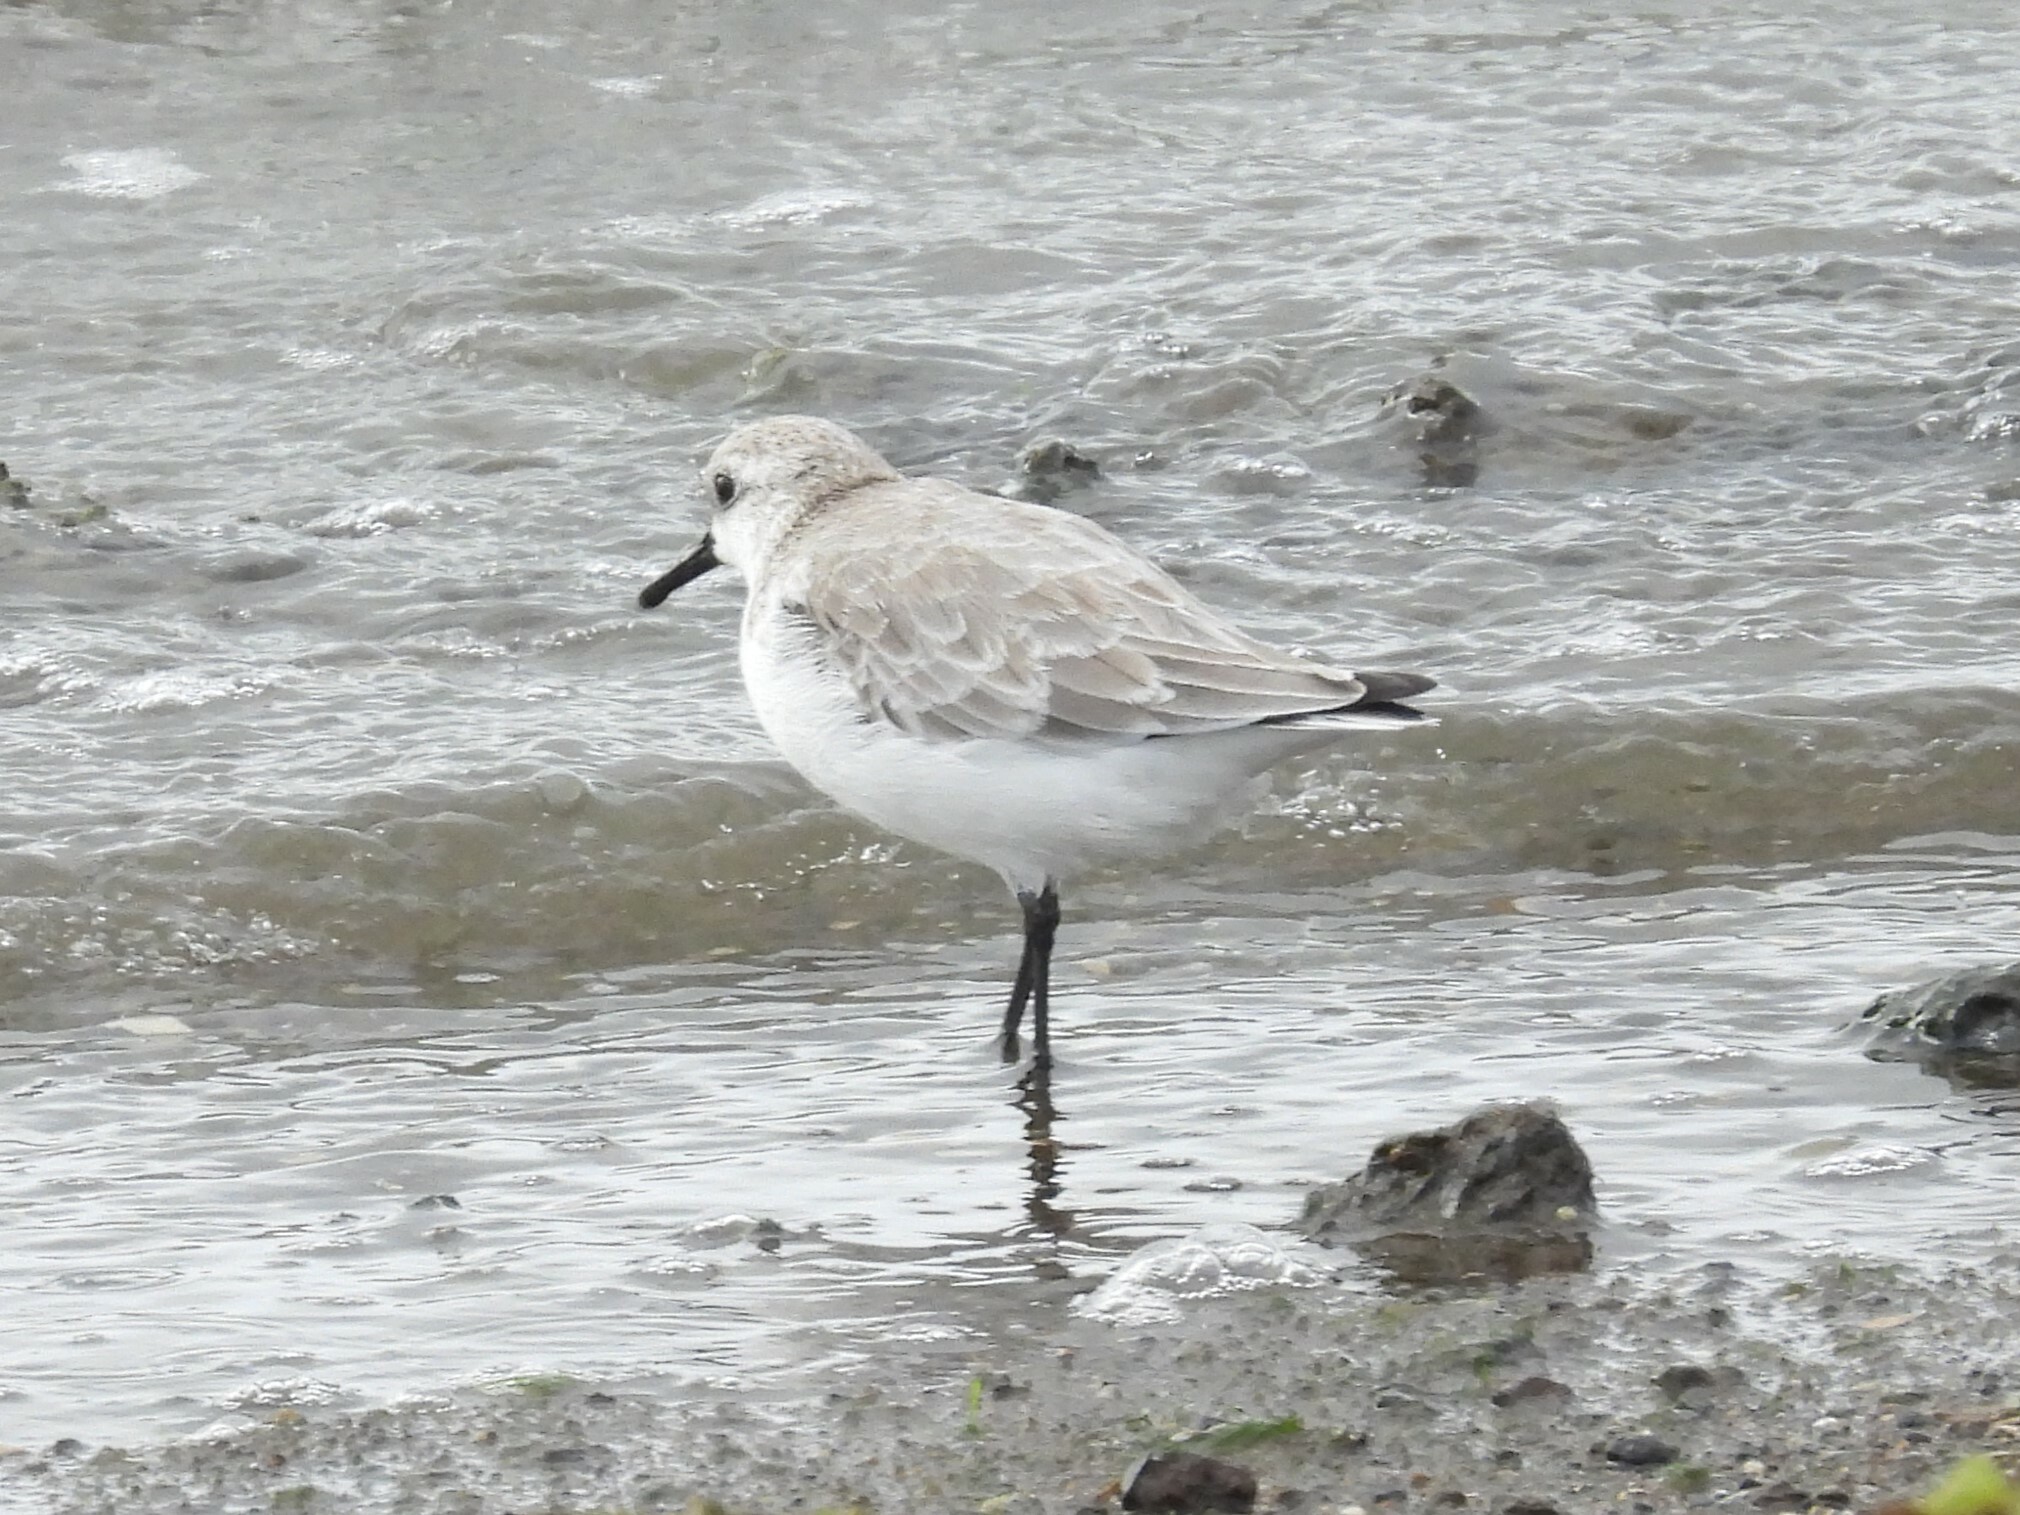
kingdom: Animalia
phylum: Chordata
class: Aves
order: Charadriiformes
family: Scolopacidae
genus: Calidris
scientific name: Calidris alba
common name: Sanderling
